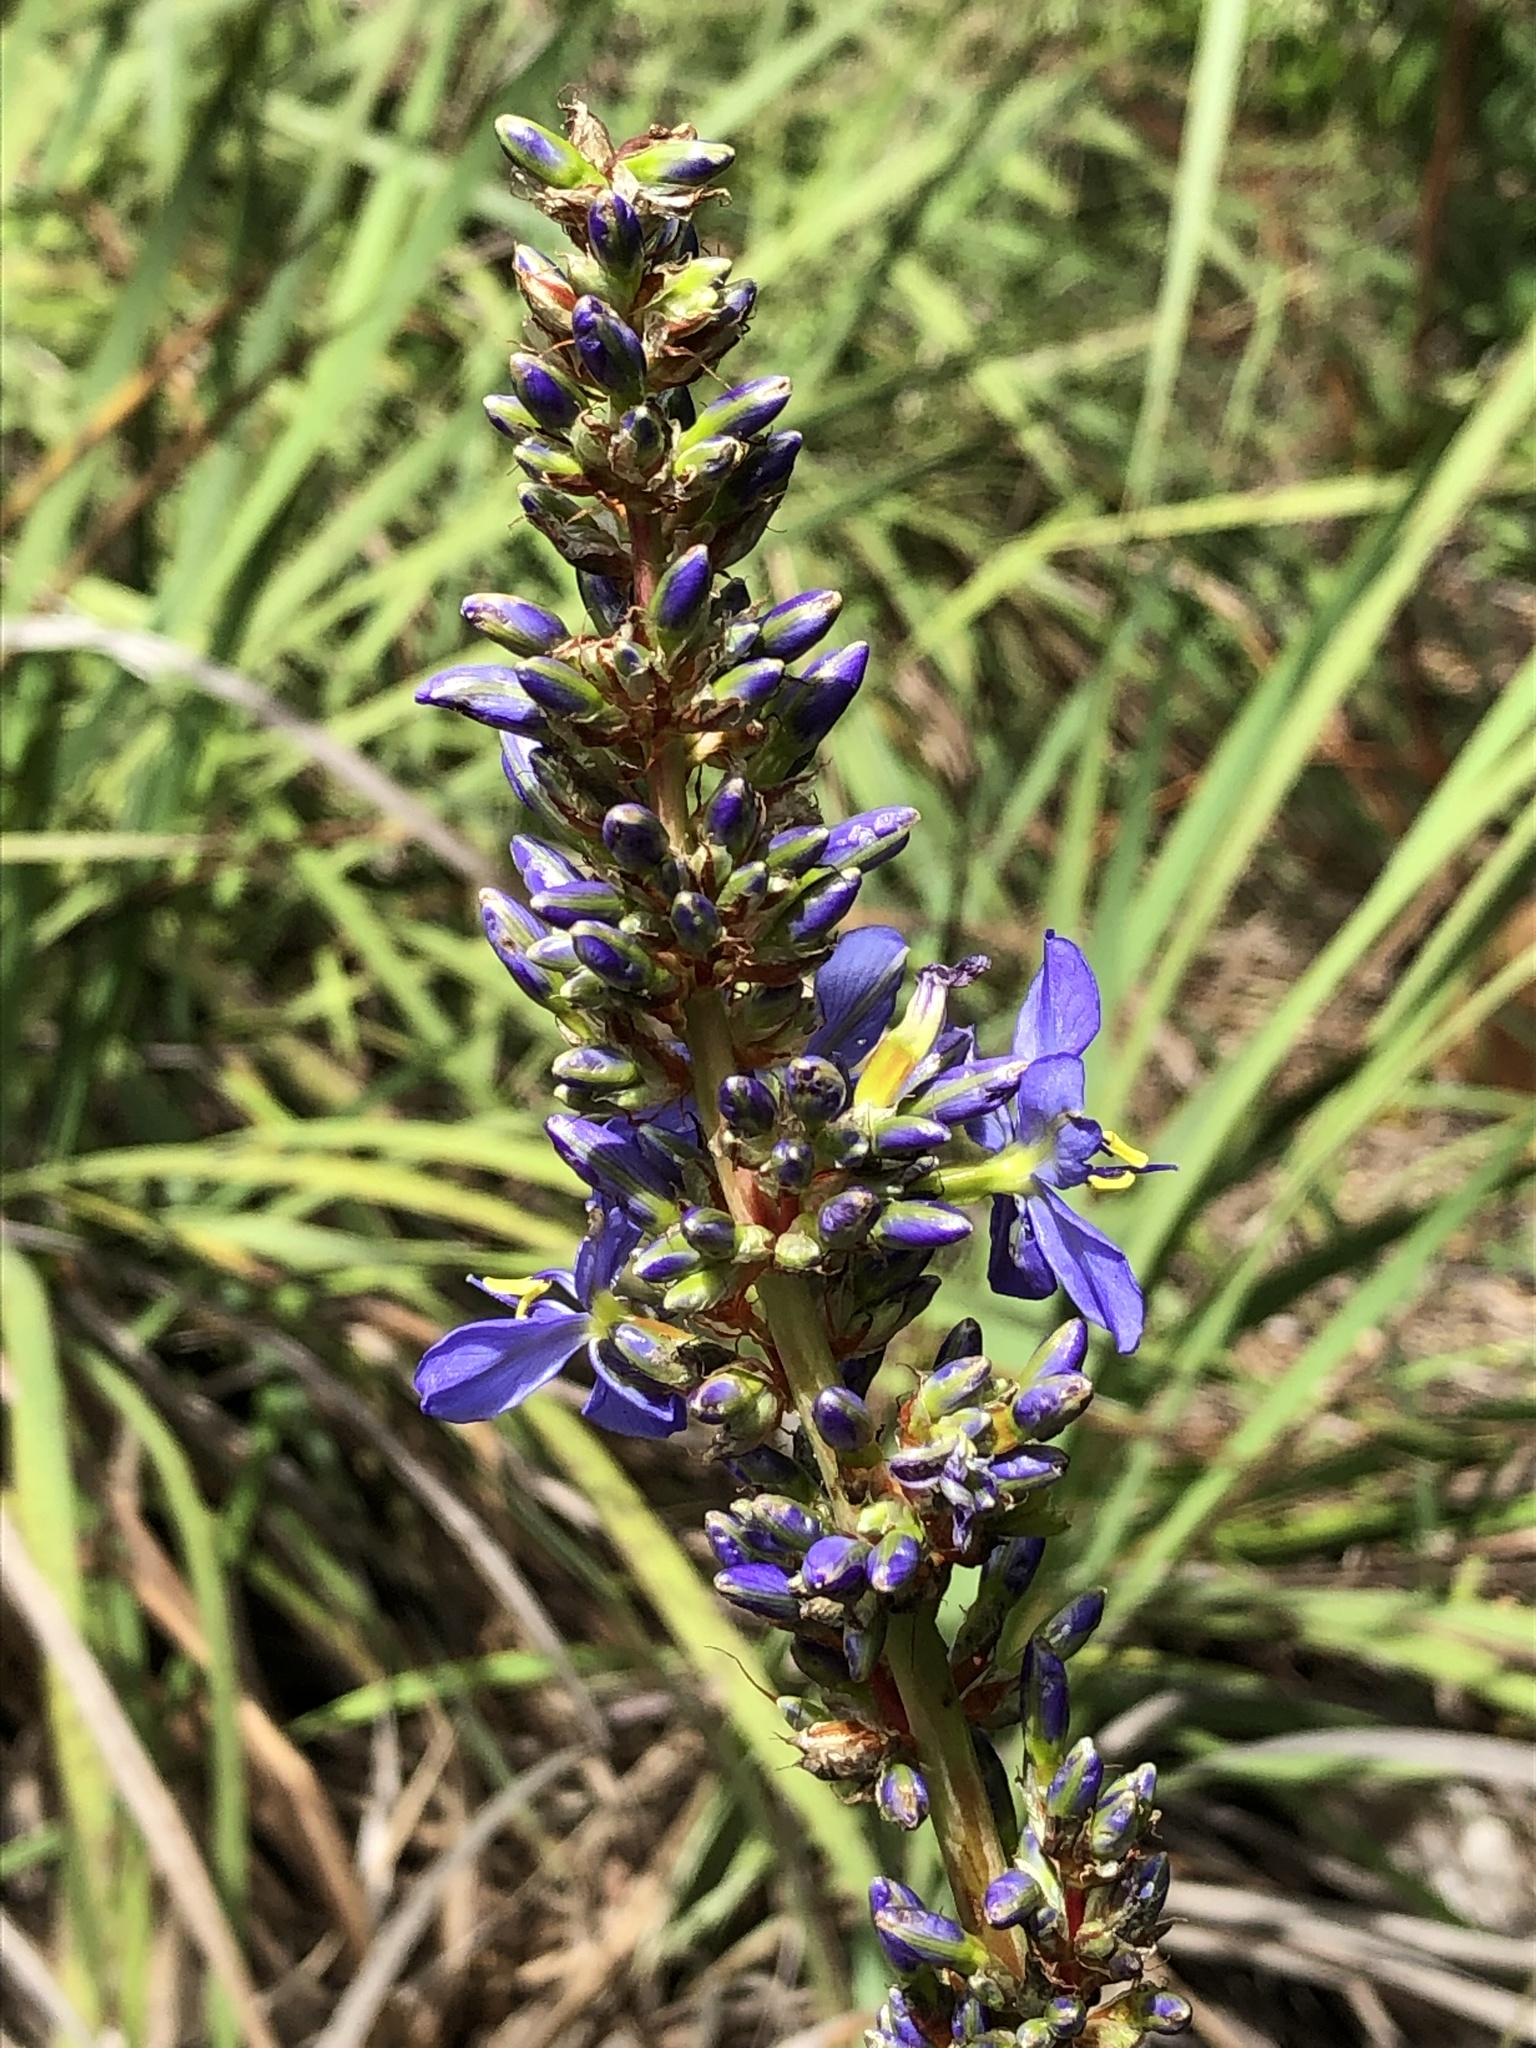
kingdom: Plantae
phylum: Tracheophyta
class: Liliopsida
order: Asparagales
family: Iridaceae
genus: Aristea
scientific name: Aristea capitata
